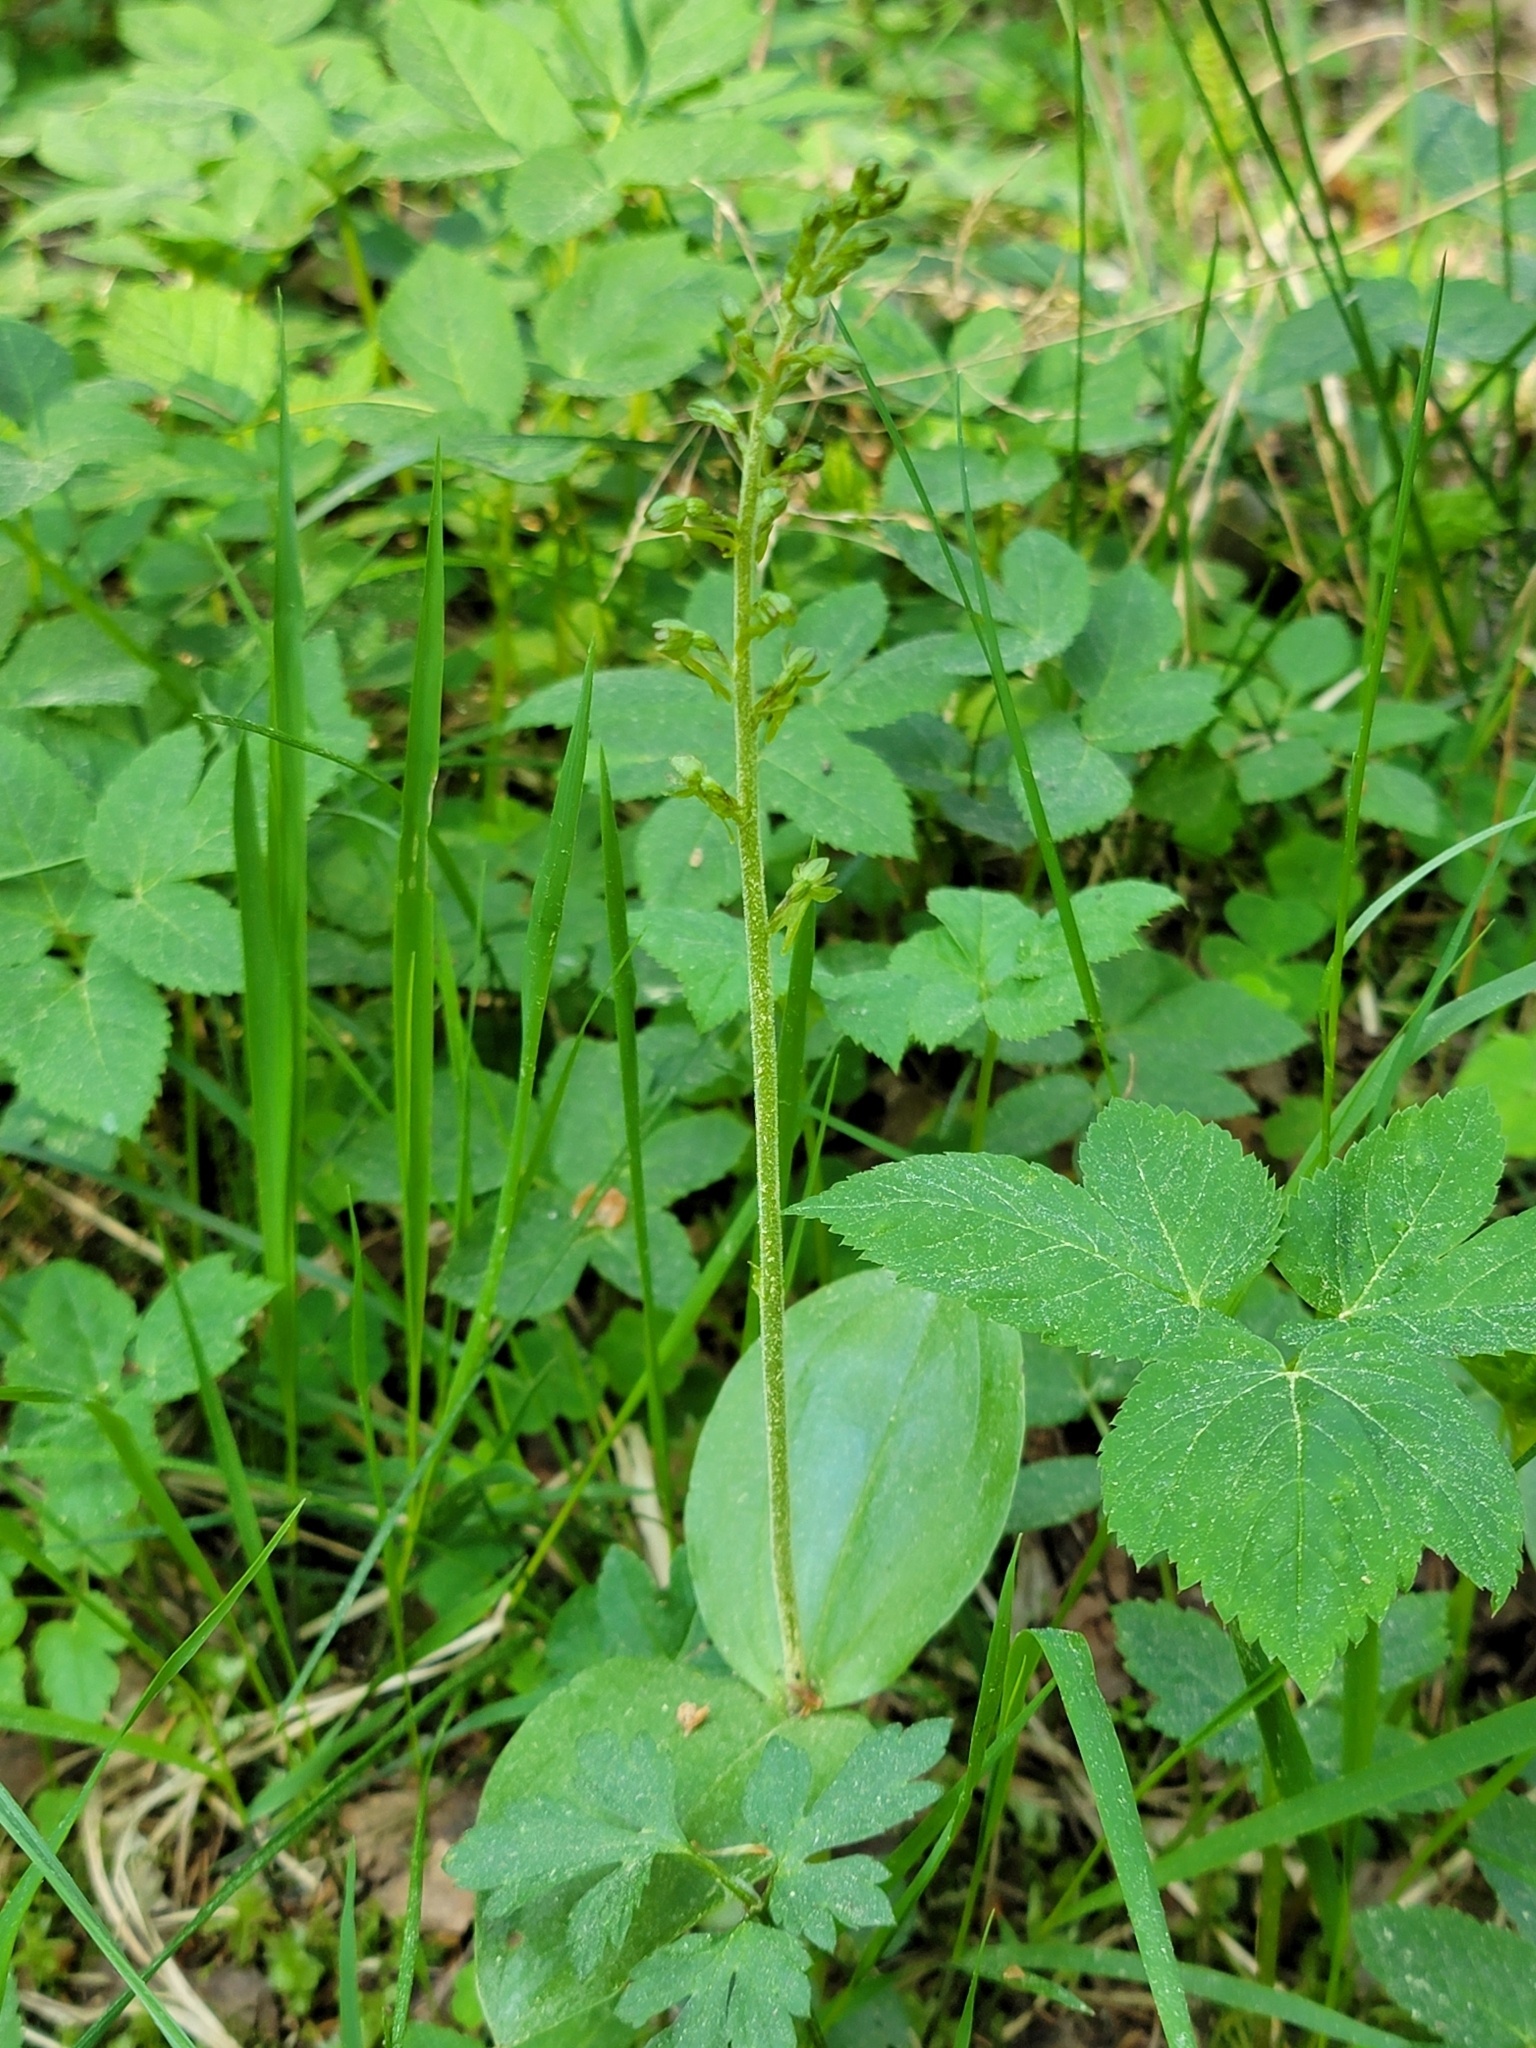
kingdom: Plantae
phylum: Tracheophyta
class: Liliopsida
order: Asparagales
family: Orchidaceae
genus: Neottia
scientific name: Neottia ovata
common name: Common twayblade
